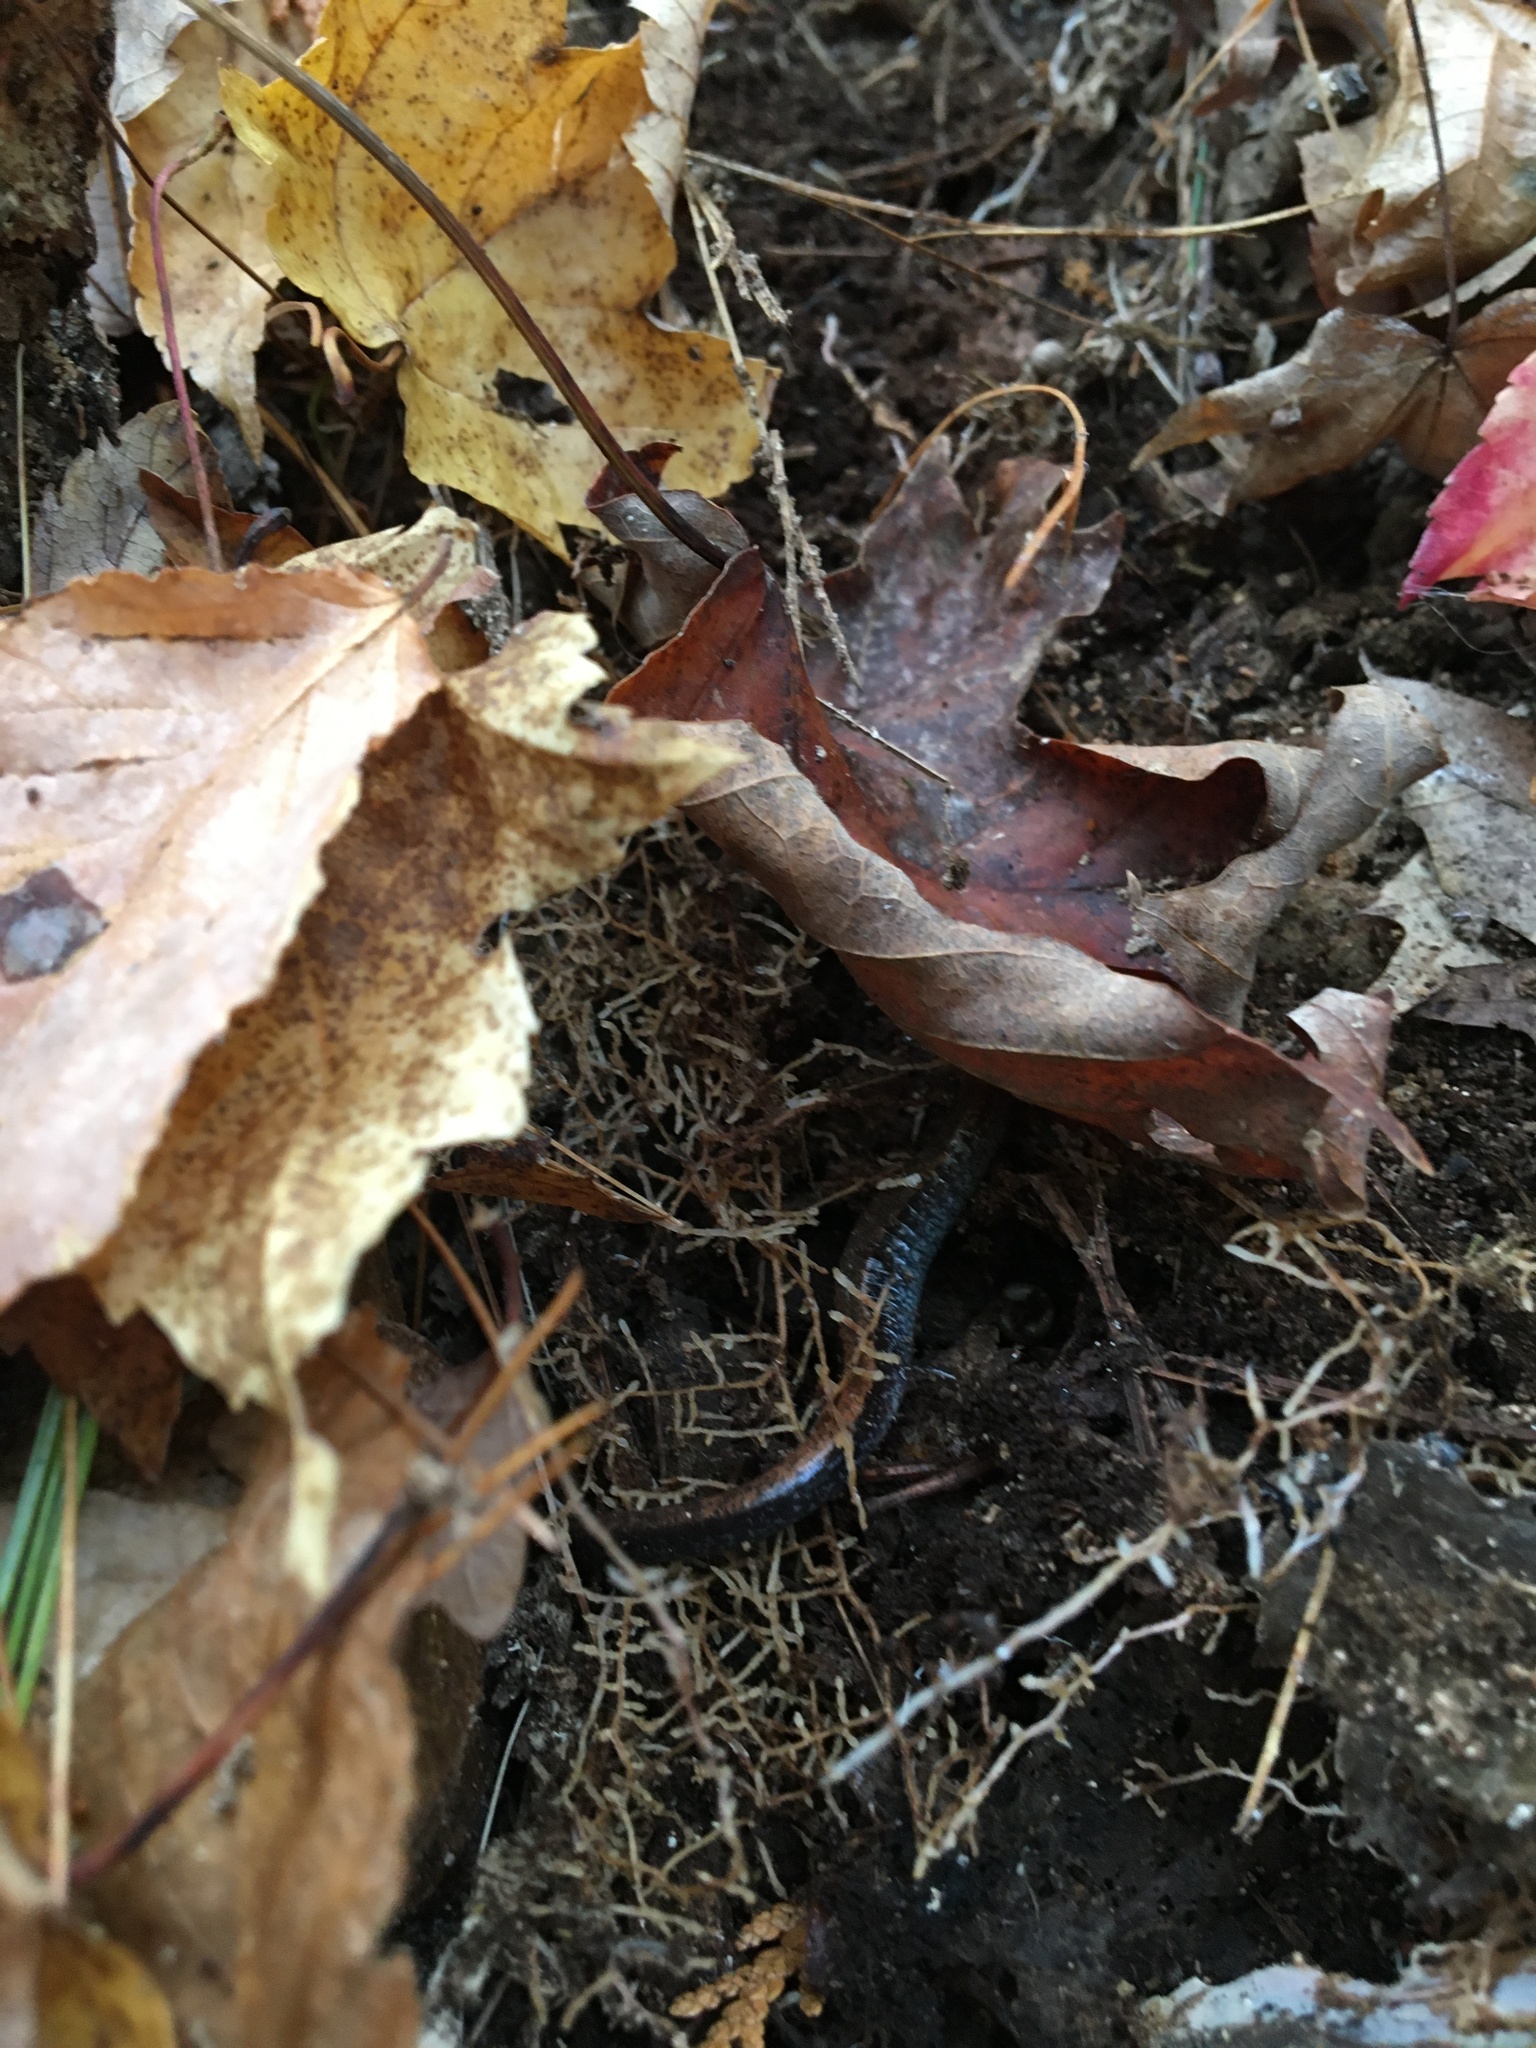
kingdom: Animalia
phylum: Chordata
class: Amphibia
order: Caudata
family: Plethodontidae
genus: Plethodon
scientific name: Plethodon cinereus
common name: Redback salamander
